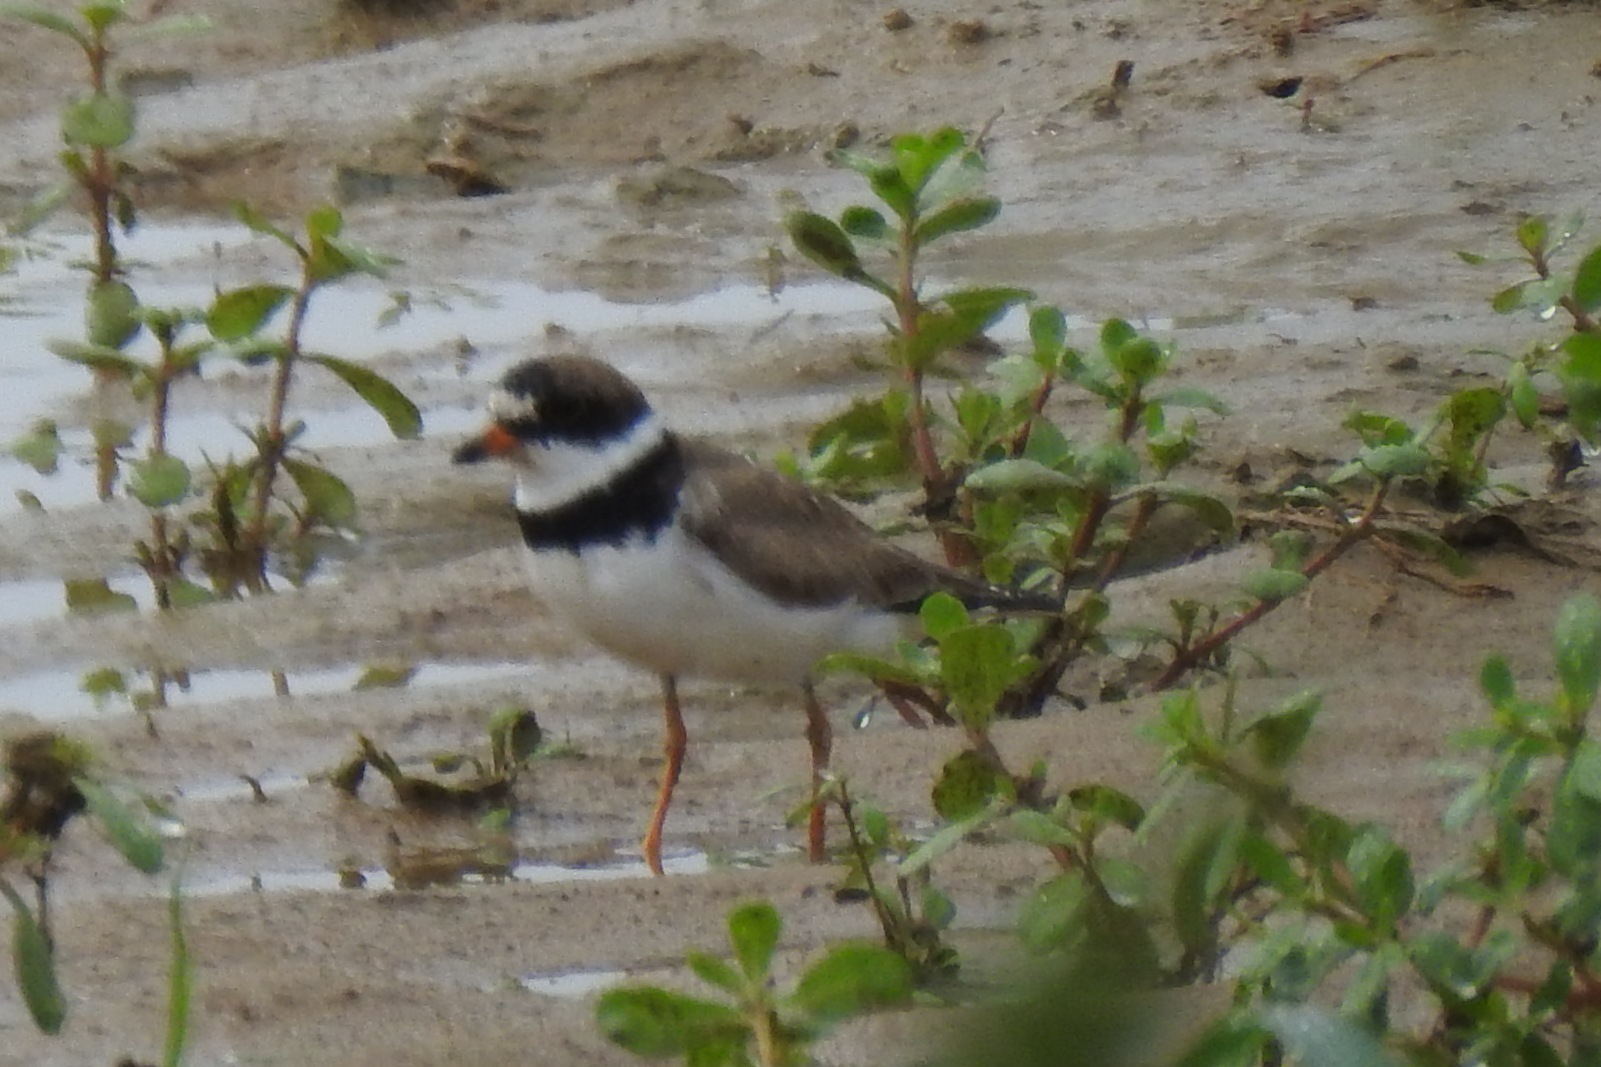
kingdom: Animalia
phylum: Chordata
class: Aves
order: Charadriiformes
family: Charadriidae
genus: Charadrius
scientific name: Charadrius semipalmatus
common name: Semipalmated plover
